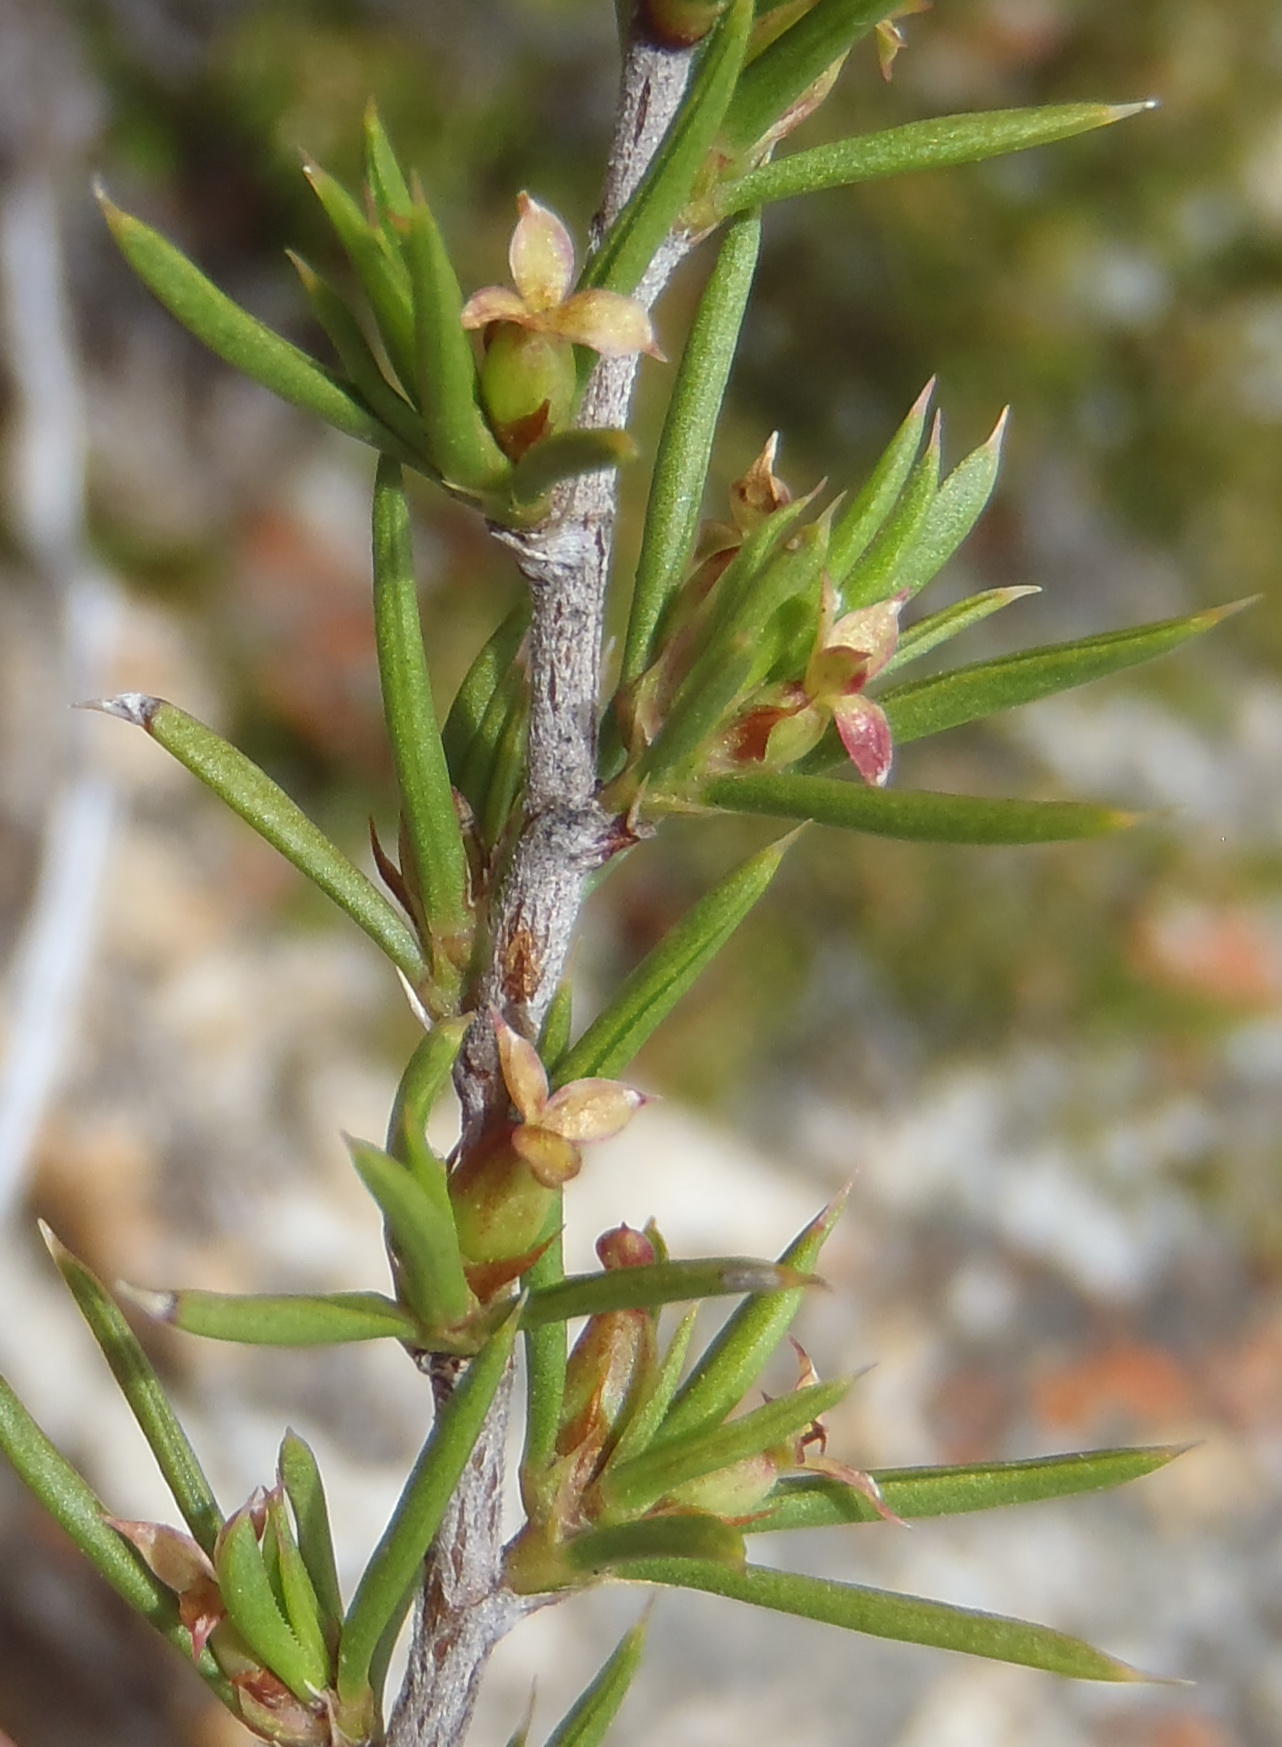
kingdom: Plantae
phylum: Tracheophyta
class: Magnoliopsida
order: Rosales
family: Rosaceae
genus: Cliffortia
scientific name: Cliffortia neglecta
